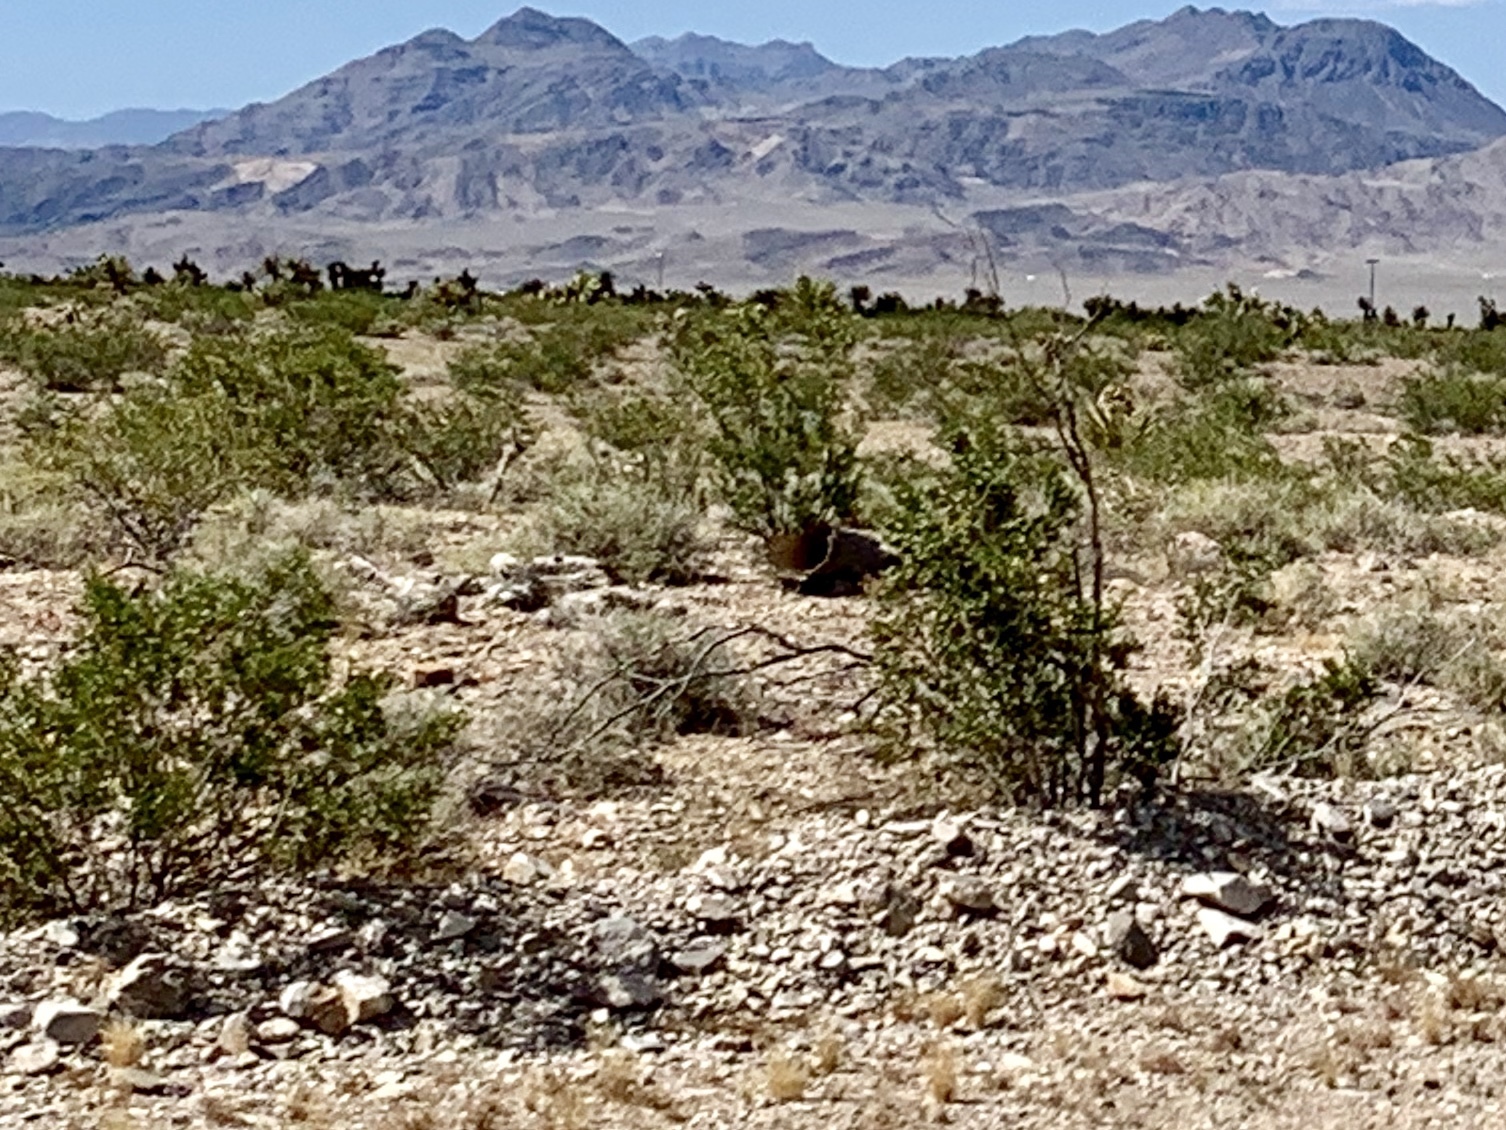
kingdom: Plantae
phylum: Tracheophyta
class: Magnoliopsida
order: Zygophyllales
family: Zygophyllaceae
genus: Larrea
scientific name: Larrea tridentata
